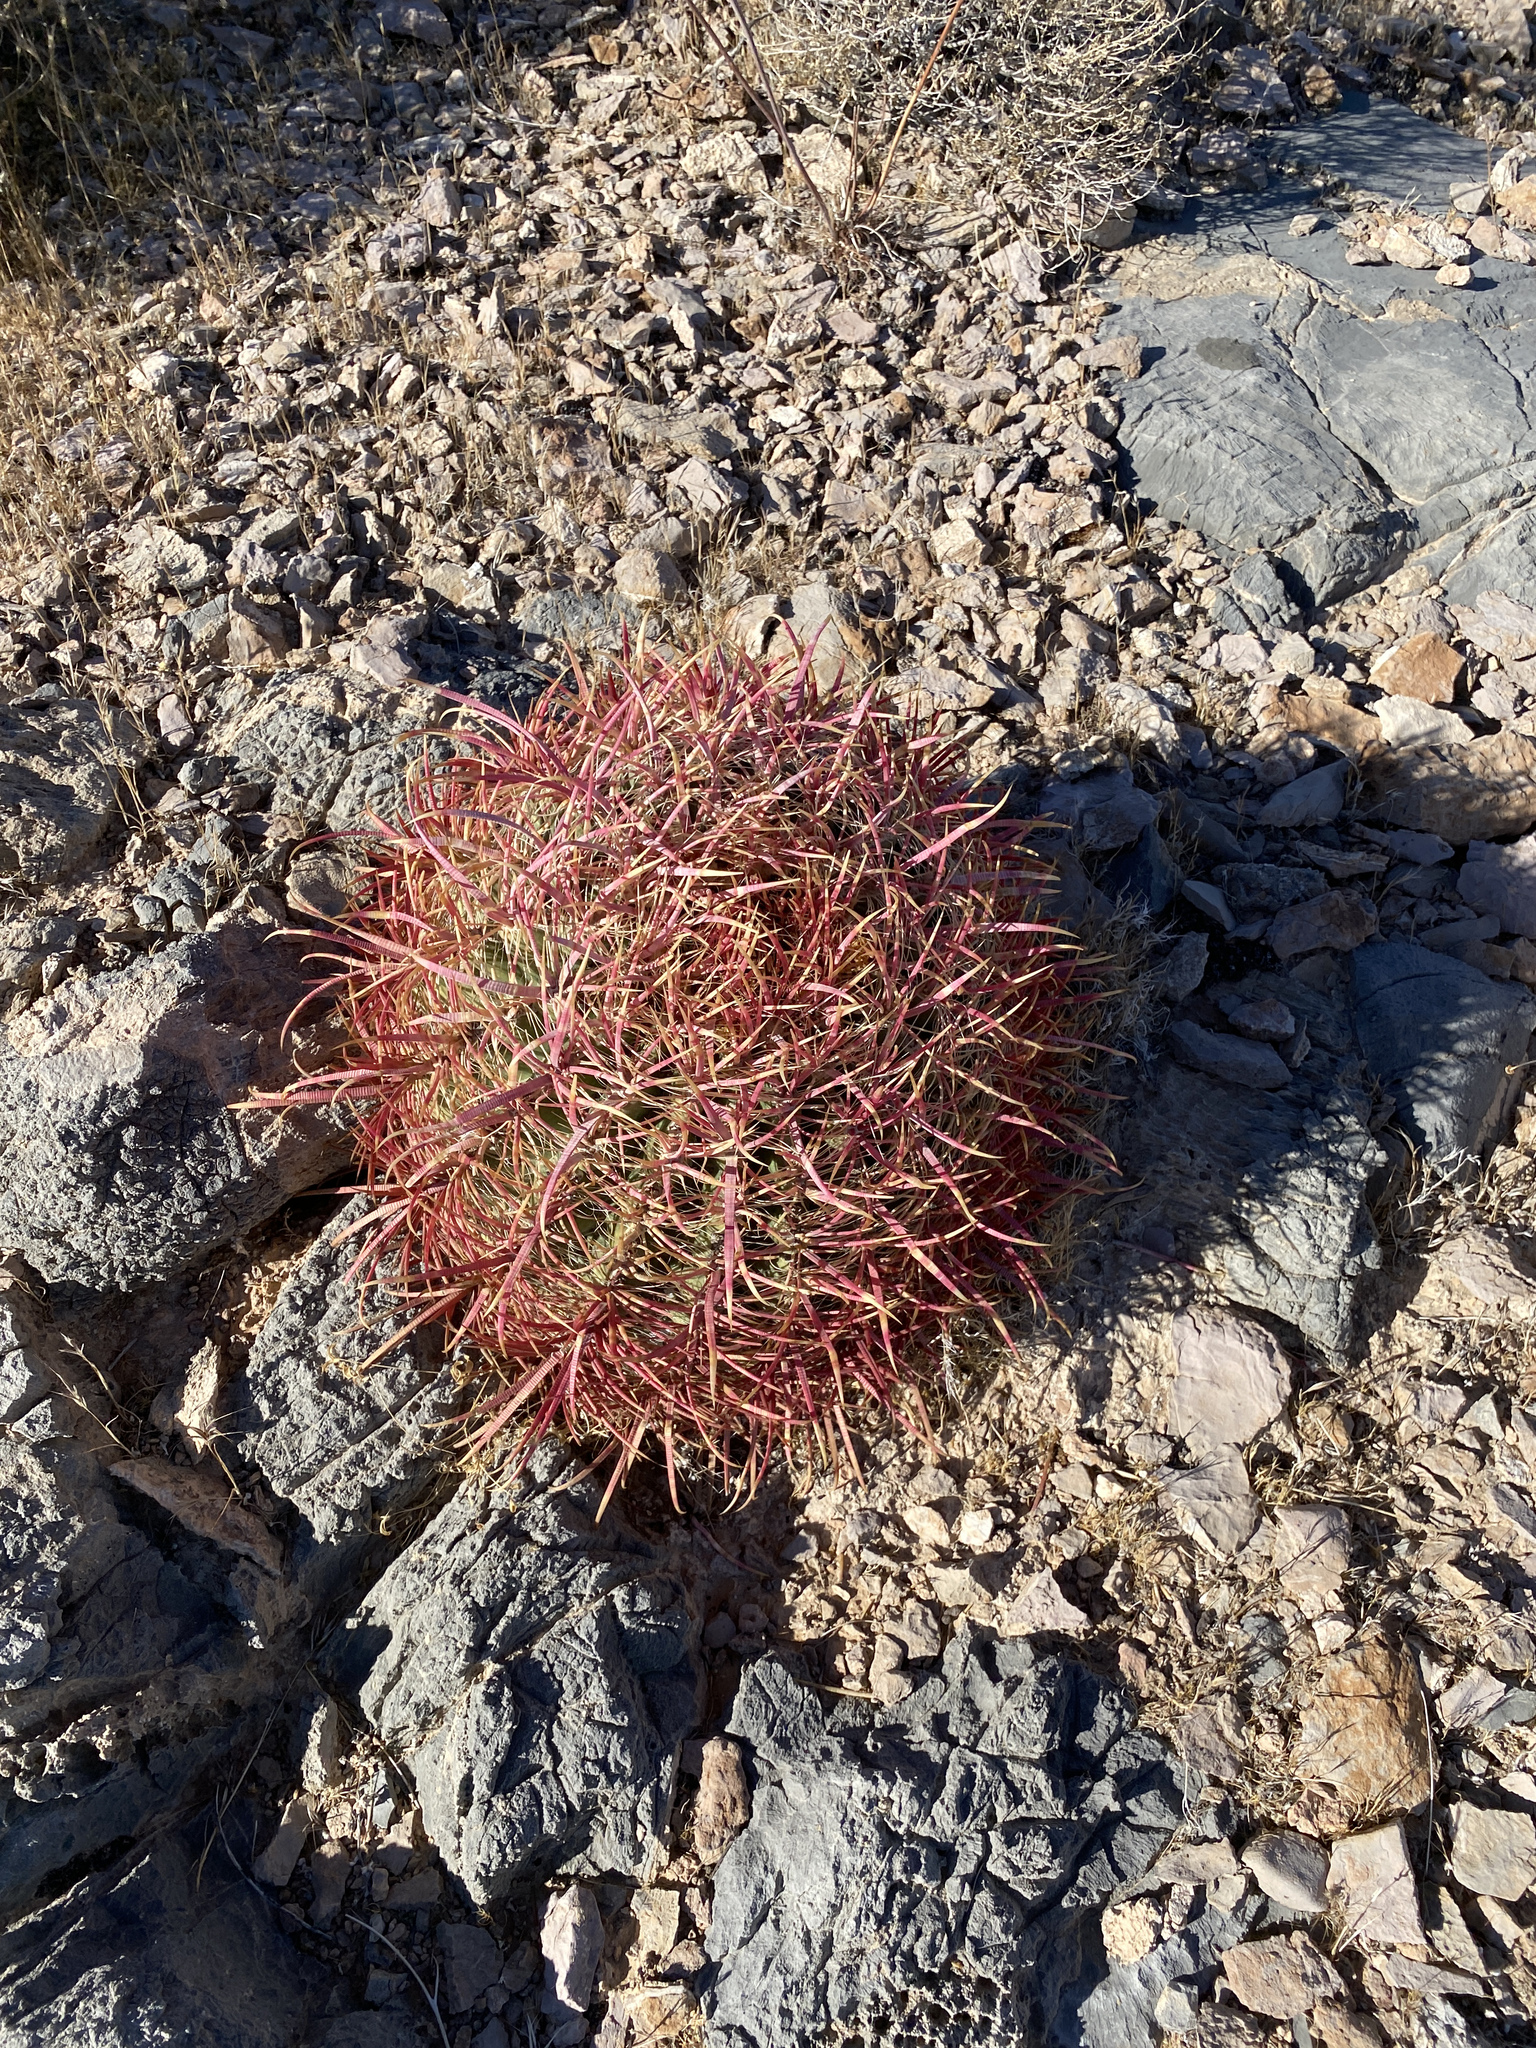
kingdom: Plantae
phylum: Tracheophyta
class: Magnoliopsida
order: Caryophyllales
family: Cactaceae
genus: Ferocactus
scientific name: Ferocactus cylindraceus
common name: California barrel cactus
